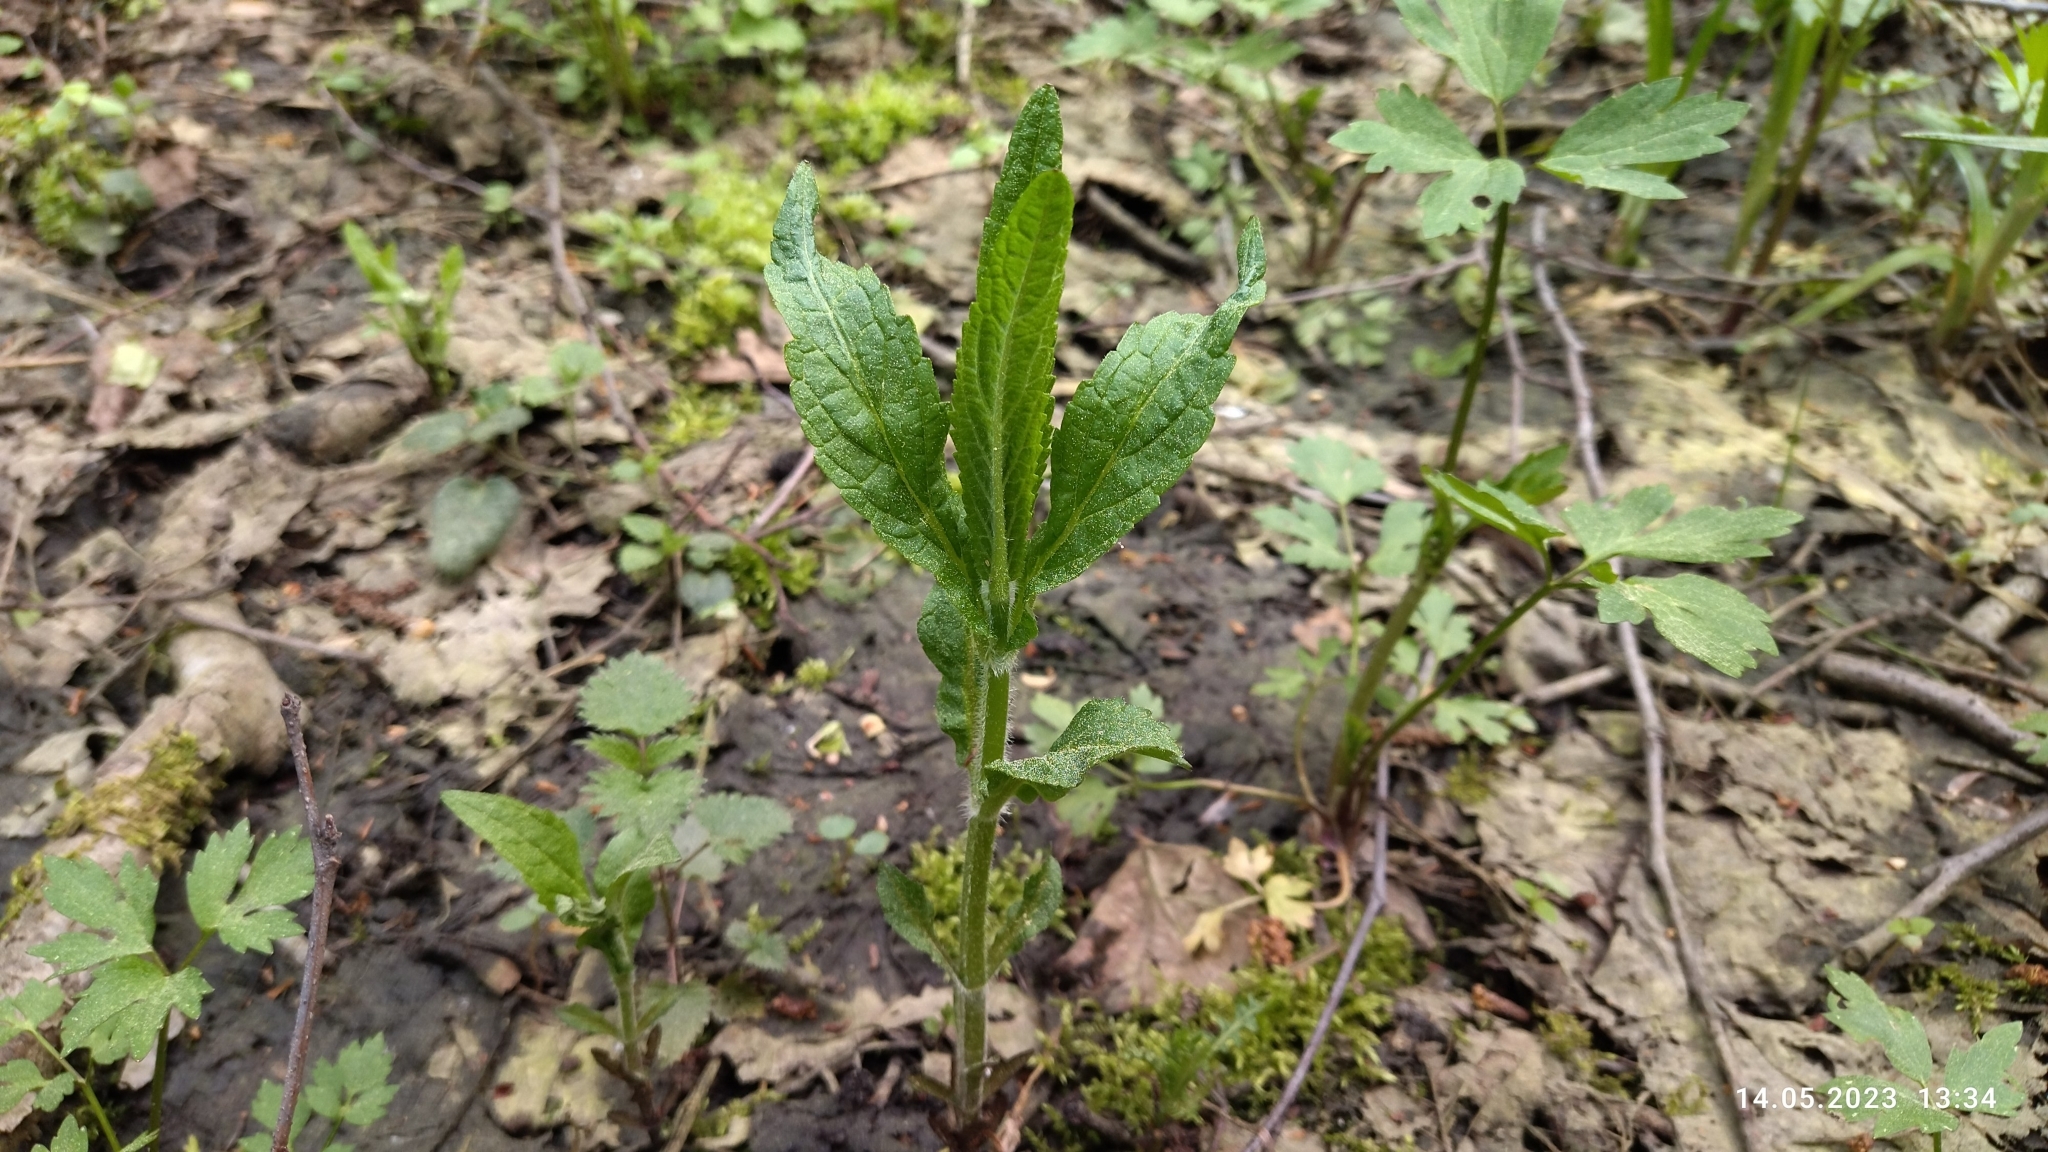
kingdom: Plantae
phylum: Tracheophyta
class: Magnoliopsida
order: Lamiales
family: Lamiaceae
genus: Stachys
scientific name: Stachys palustris
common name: Marsh woundwort
